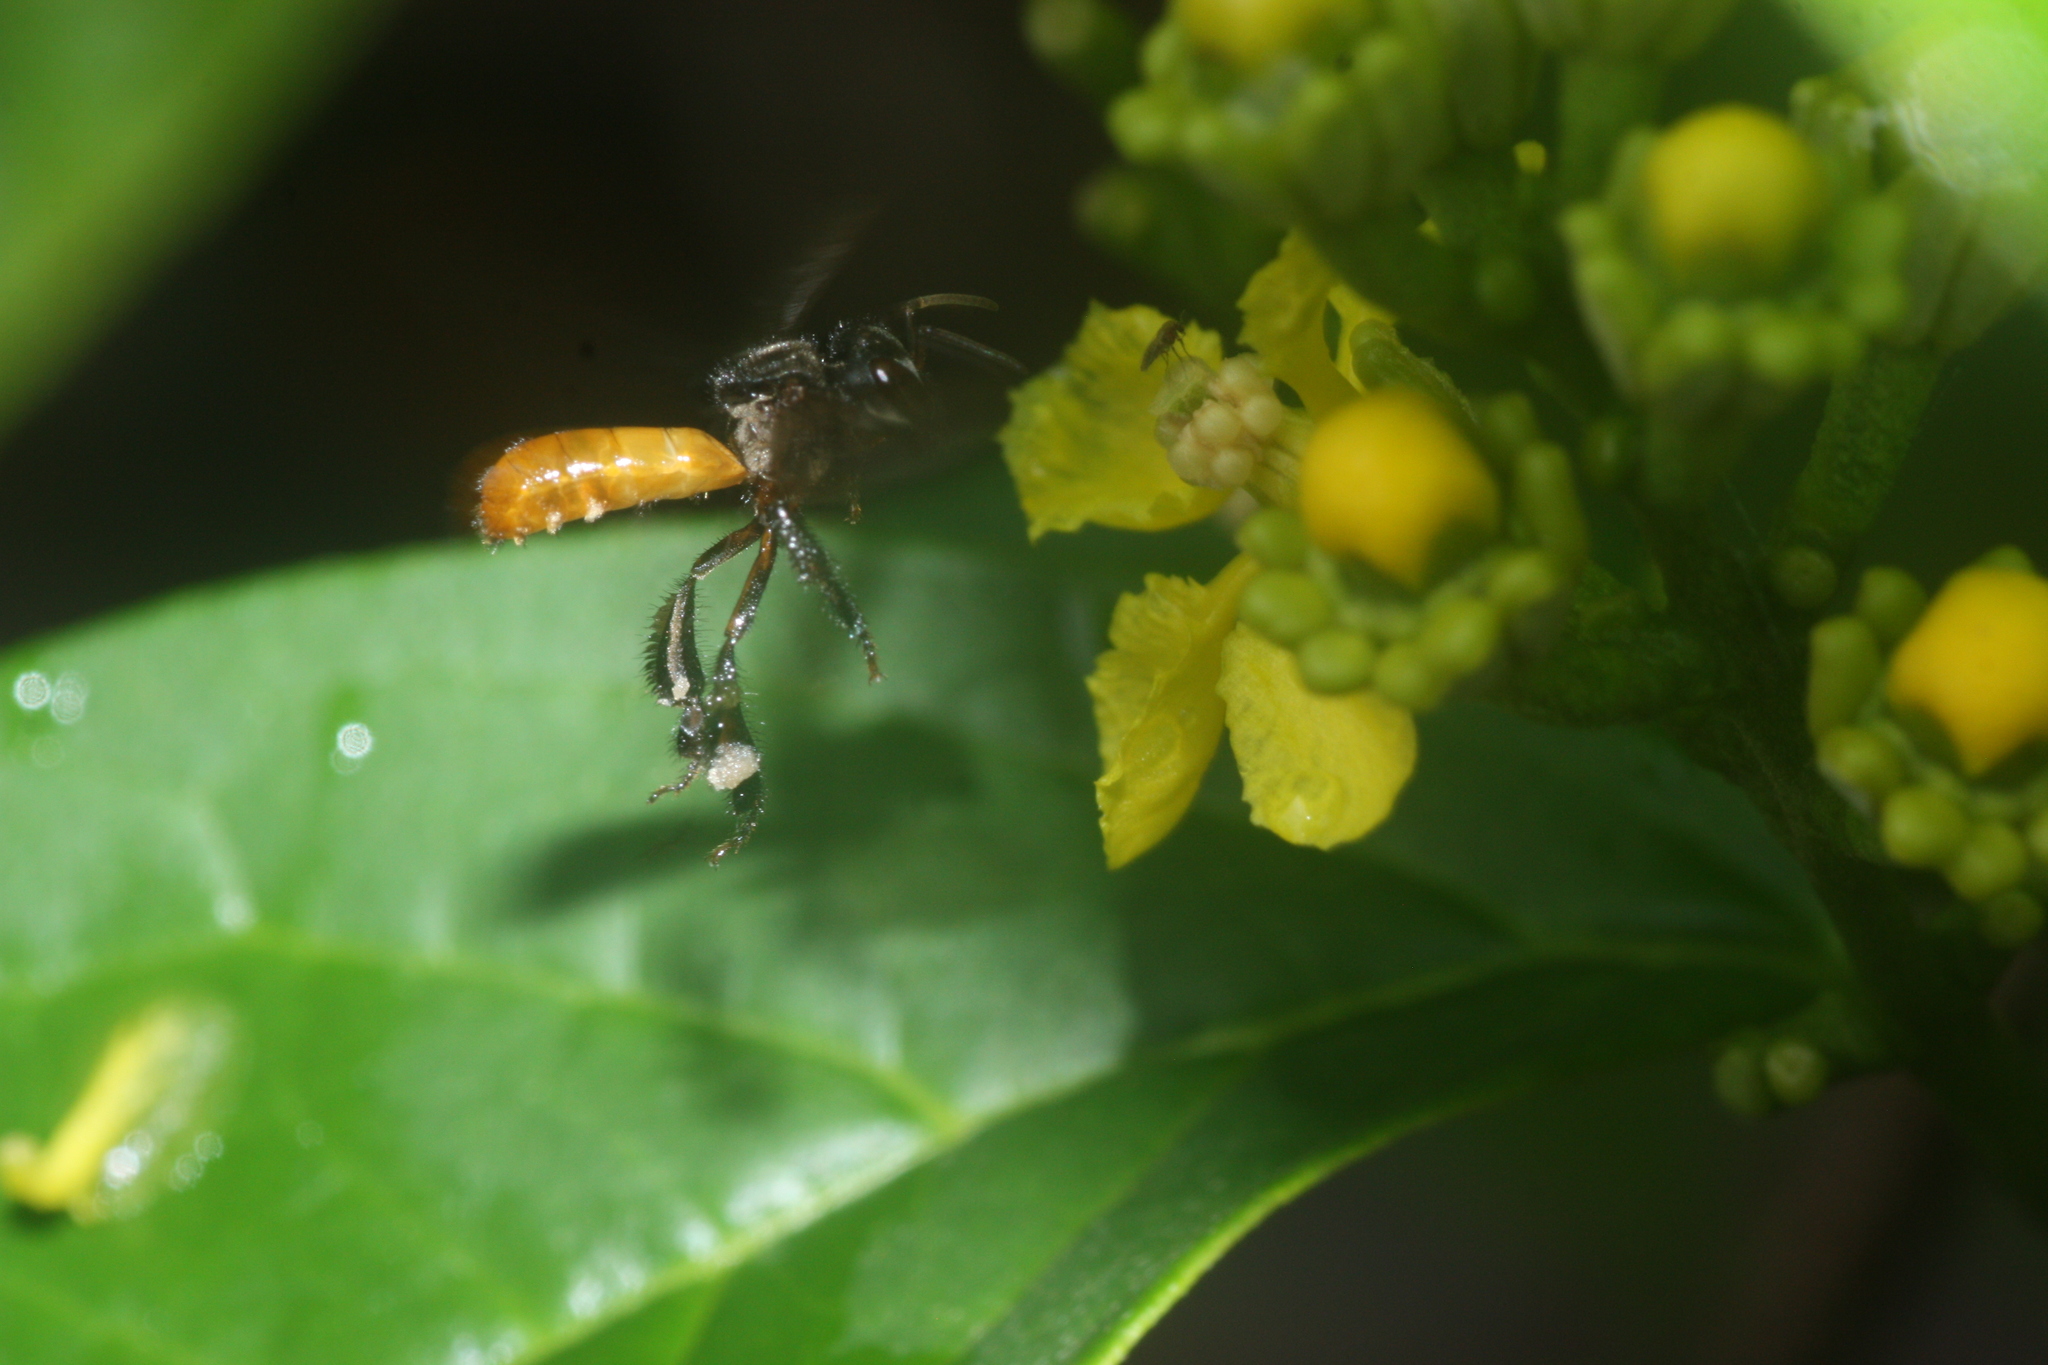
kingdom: Animalia
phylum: Arthropoda
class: Insecta
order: Hymenoptera
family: Apidae
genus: Trigona
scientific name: Trigona fulviventris
